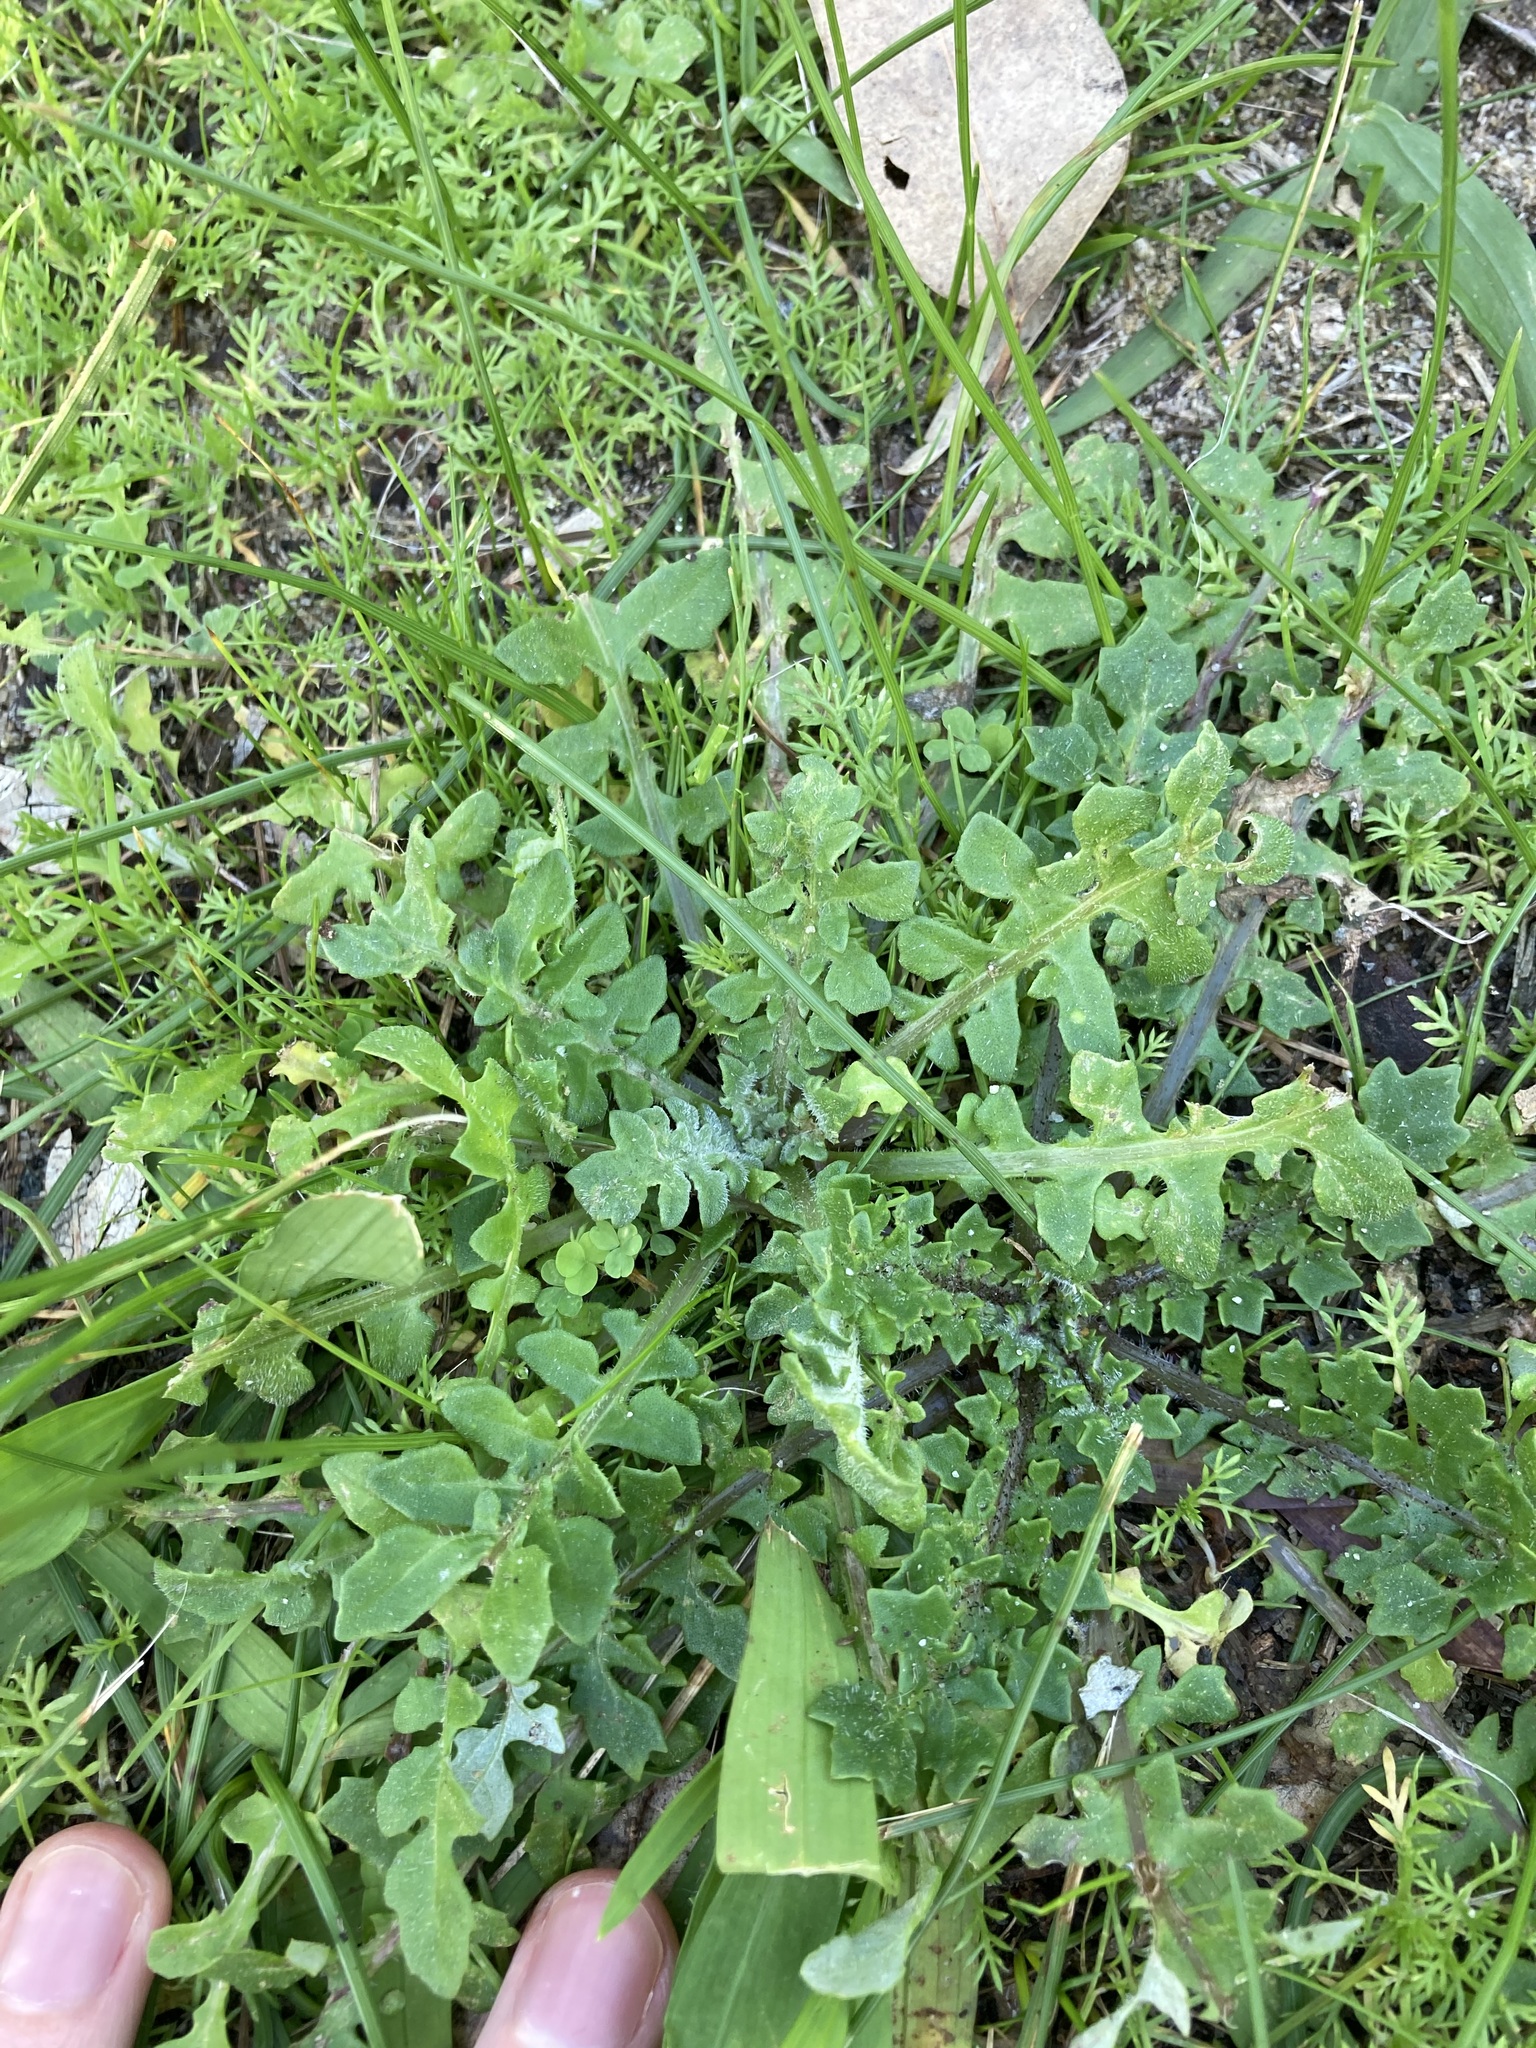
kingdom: Plantae
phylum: Tracheophyta
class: Magnoliopsida
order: Asterales
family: Asteraceae
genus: Arctotheca
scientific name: Arctotheca calendula
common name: Capeweed
